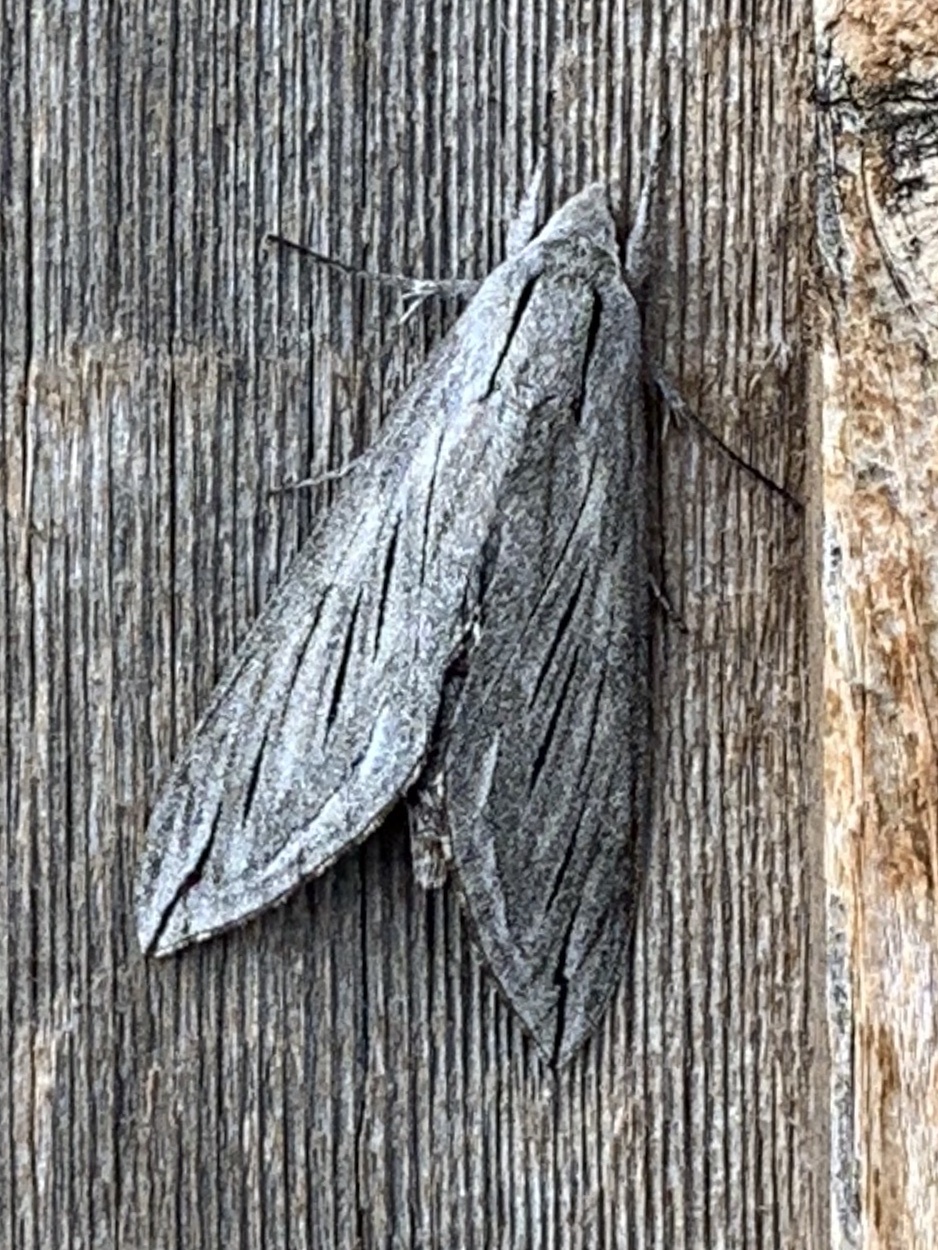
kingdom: Animalia
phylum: Arthropoda
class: Insecta
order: Lepidoptera
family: Sphingidae
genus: Sphinx
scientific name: Sphinx chersis
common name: Great ash sphinx
